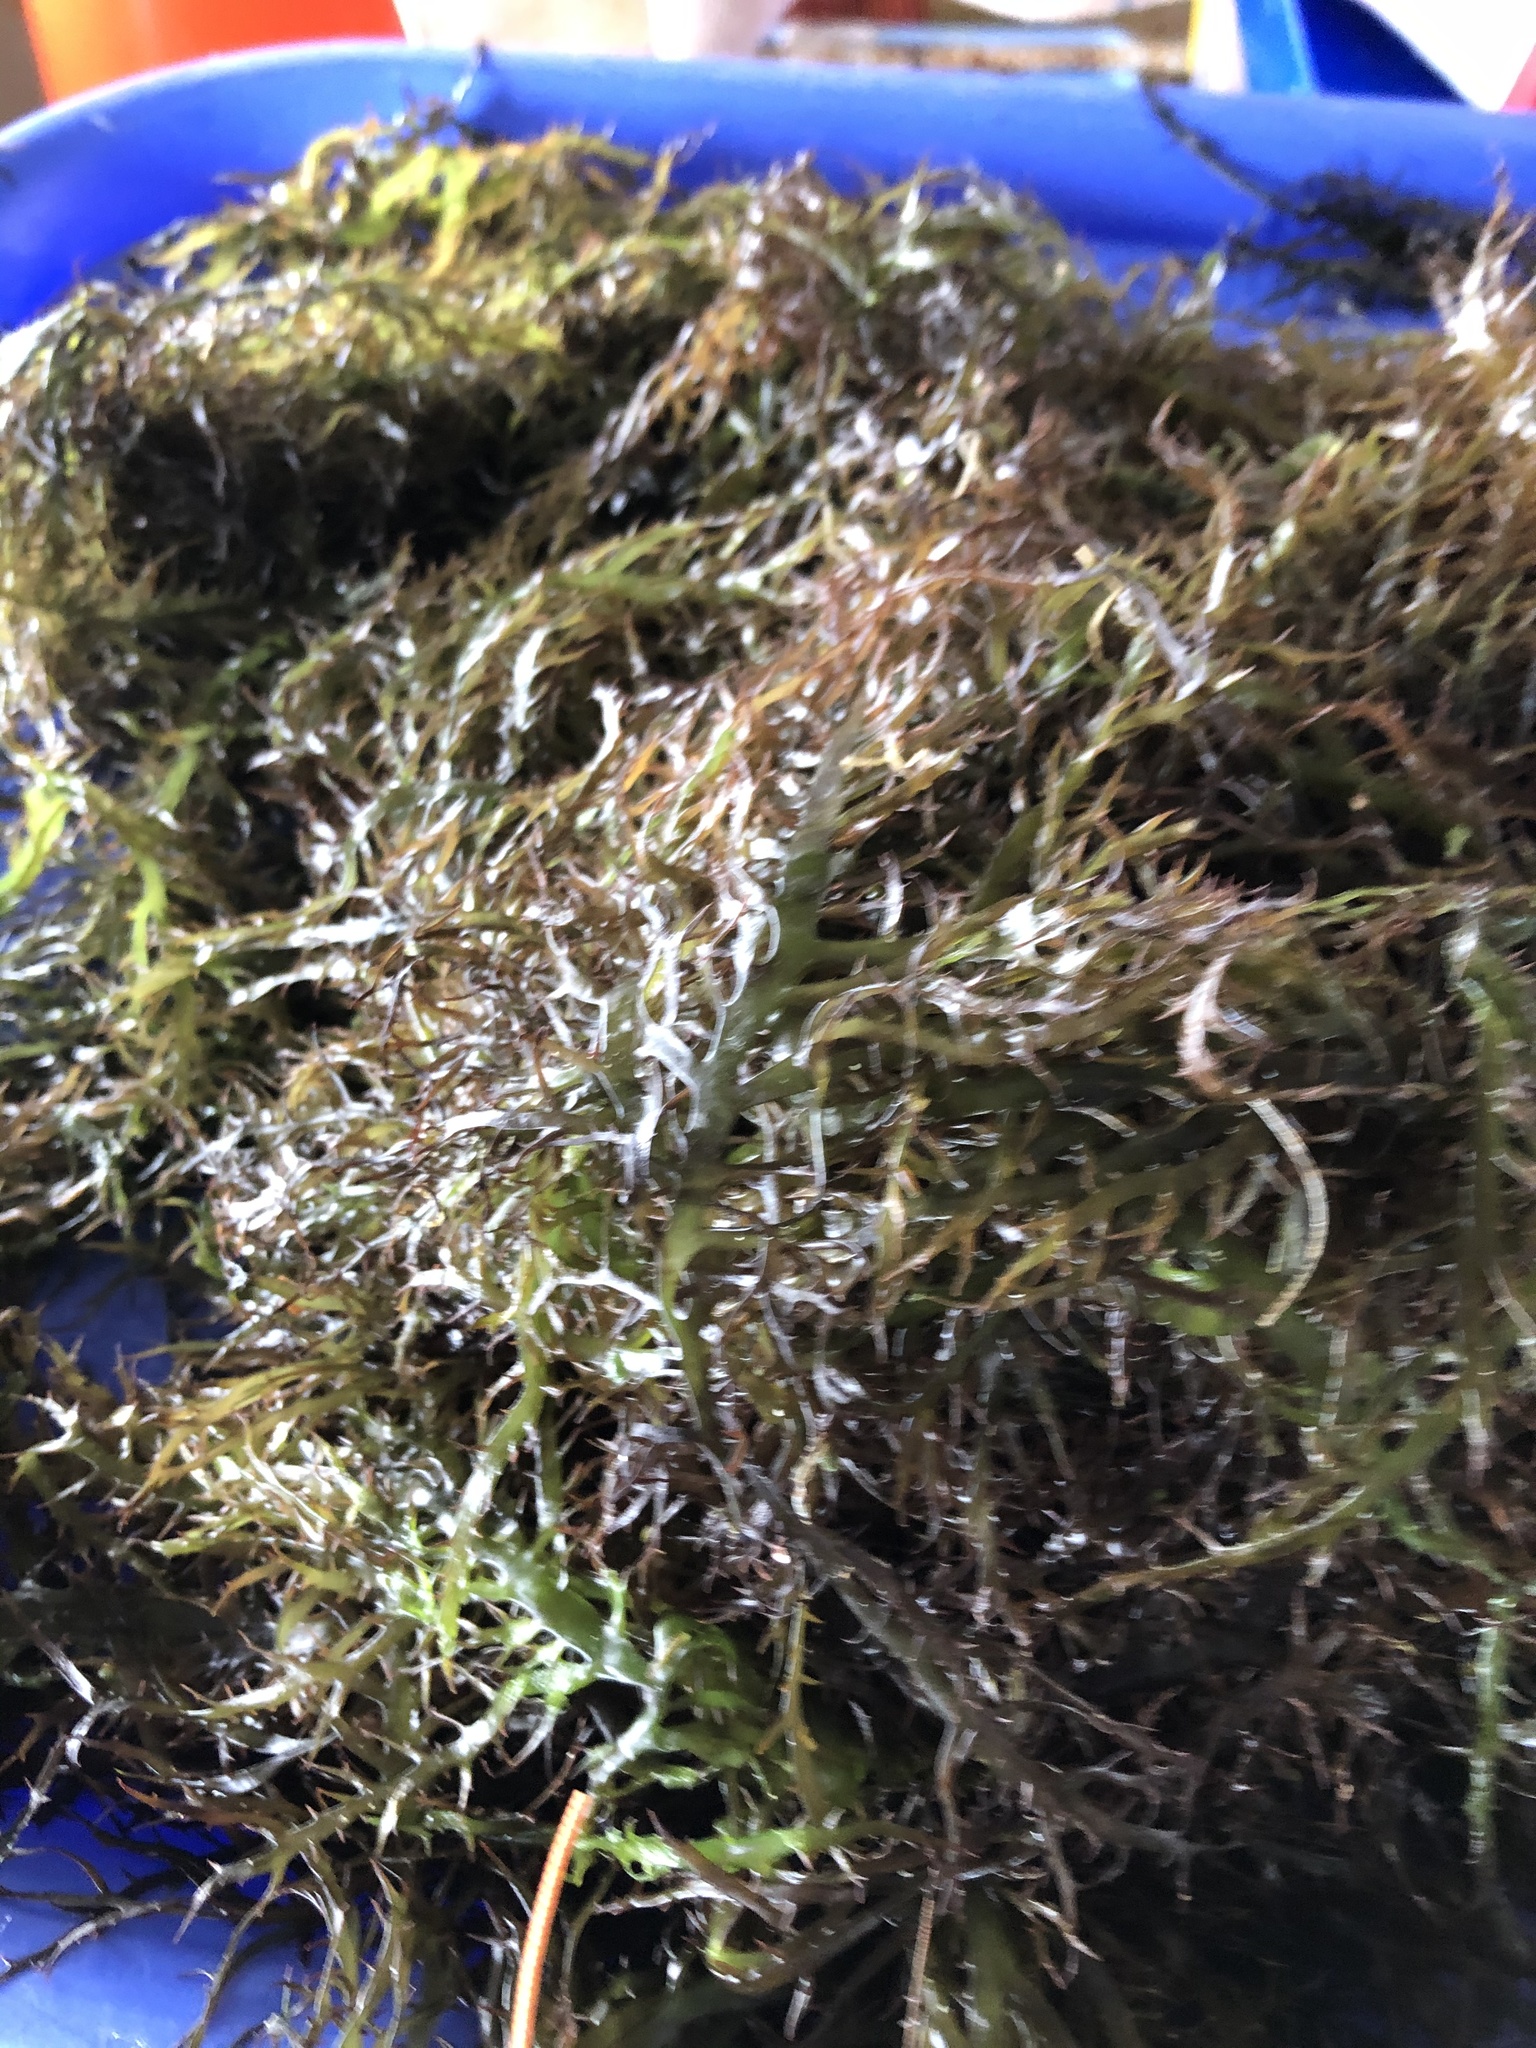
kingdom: Plantae
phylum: Rhodophyta
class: Florideophyceae
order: Gigartinales
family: Gigartinaceae
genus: Chondracanthus
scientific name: Chondracanthus chamissoi
